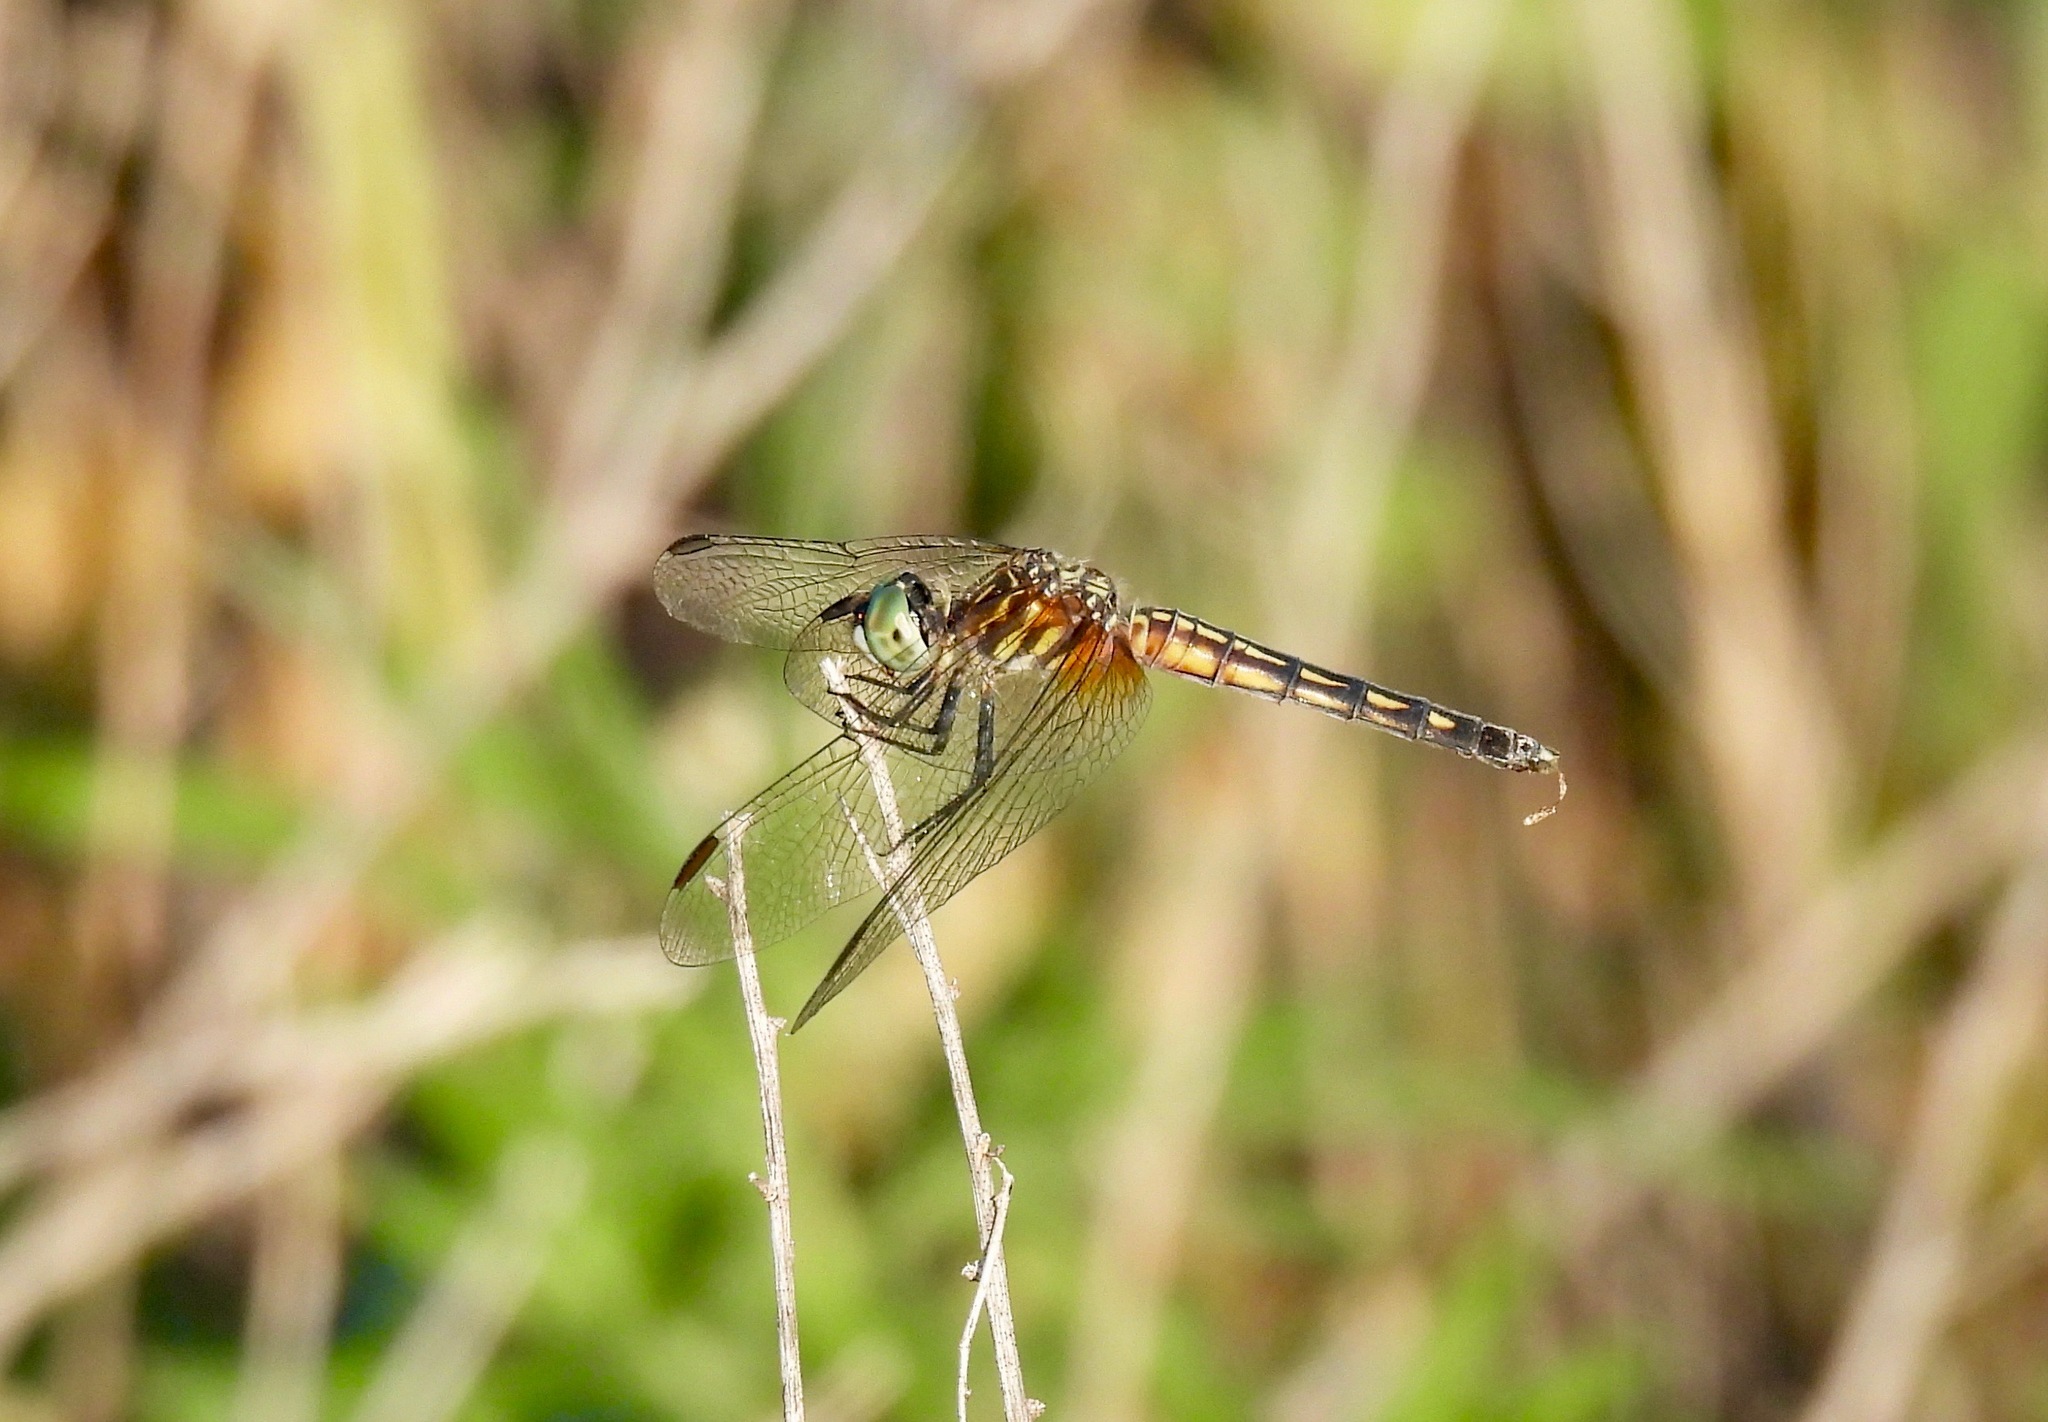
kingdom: Animalia
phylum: Arthropoda
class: Insecta
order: Odonata
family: Libellulidae
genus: Pachydiplax
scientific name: Pachydiplax longipennis
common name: Blue dasher
